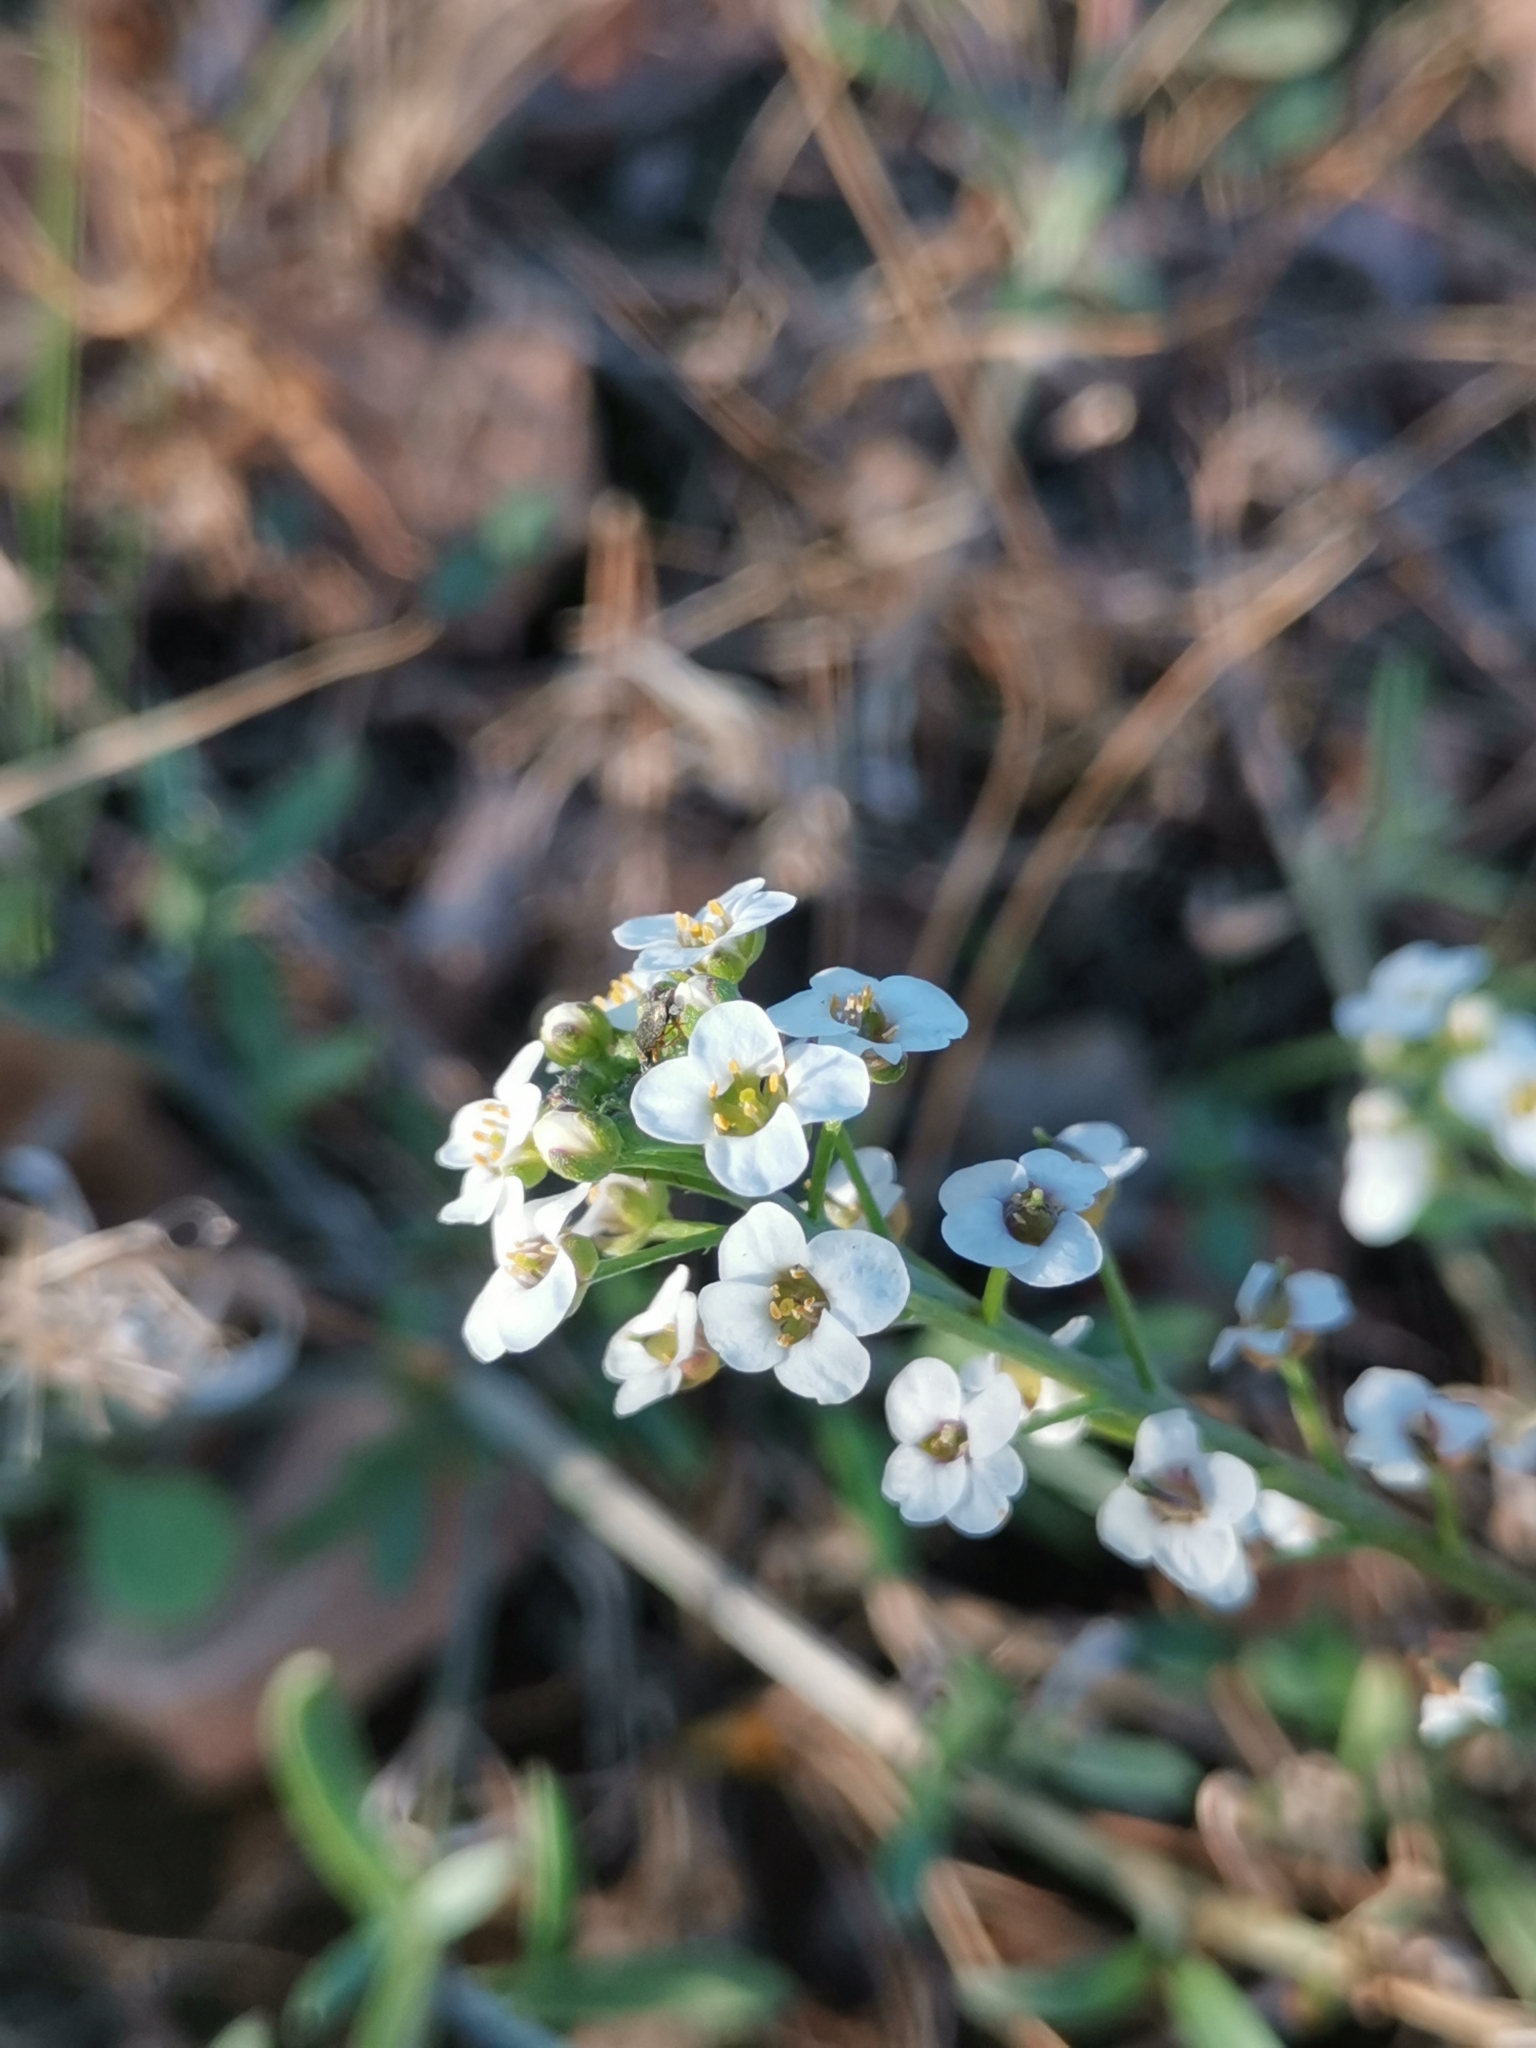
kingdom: Plantae
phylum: Tracheophyta
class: Magnoliopsida
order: Brassicales
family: Brassicaceae
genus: Lobularia
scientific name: Lobularia maritima
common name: Sweet alison
